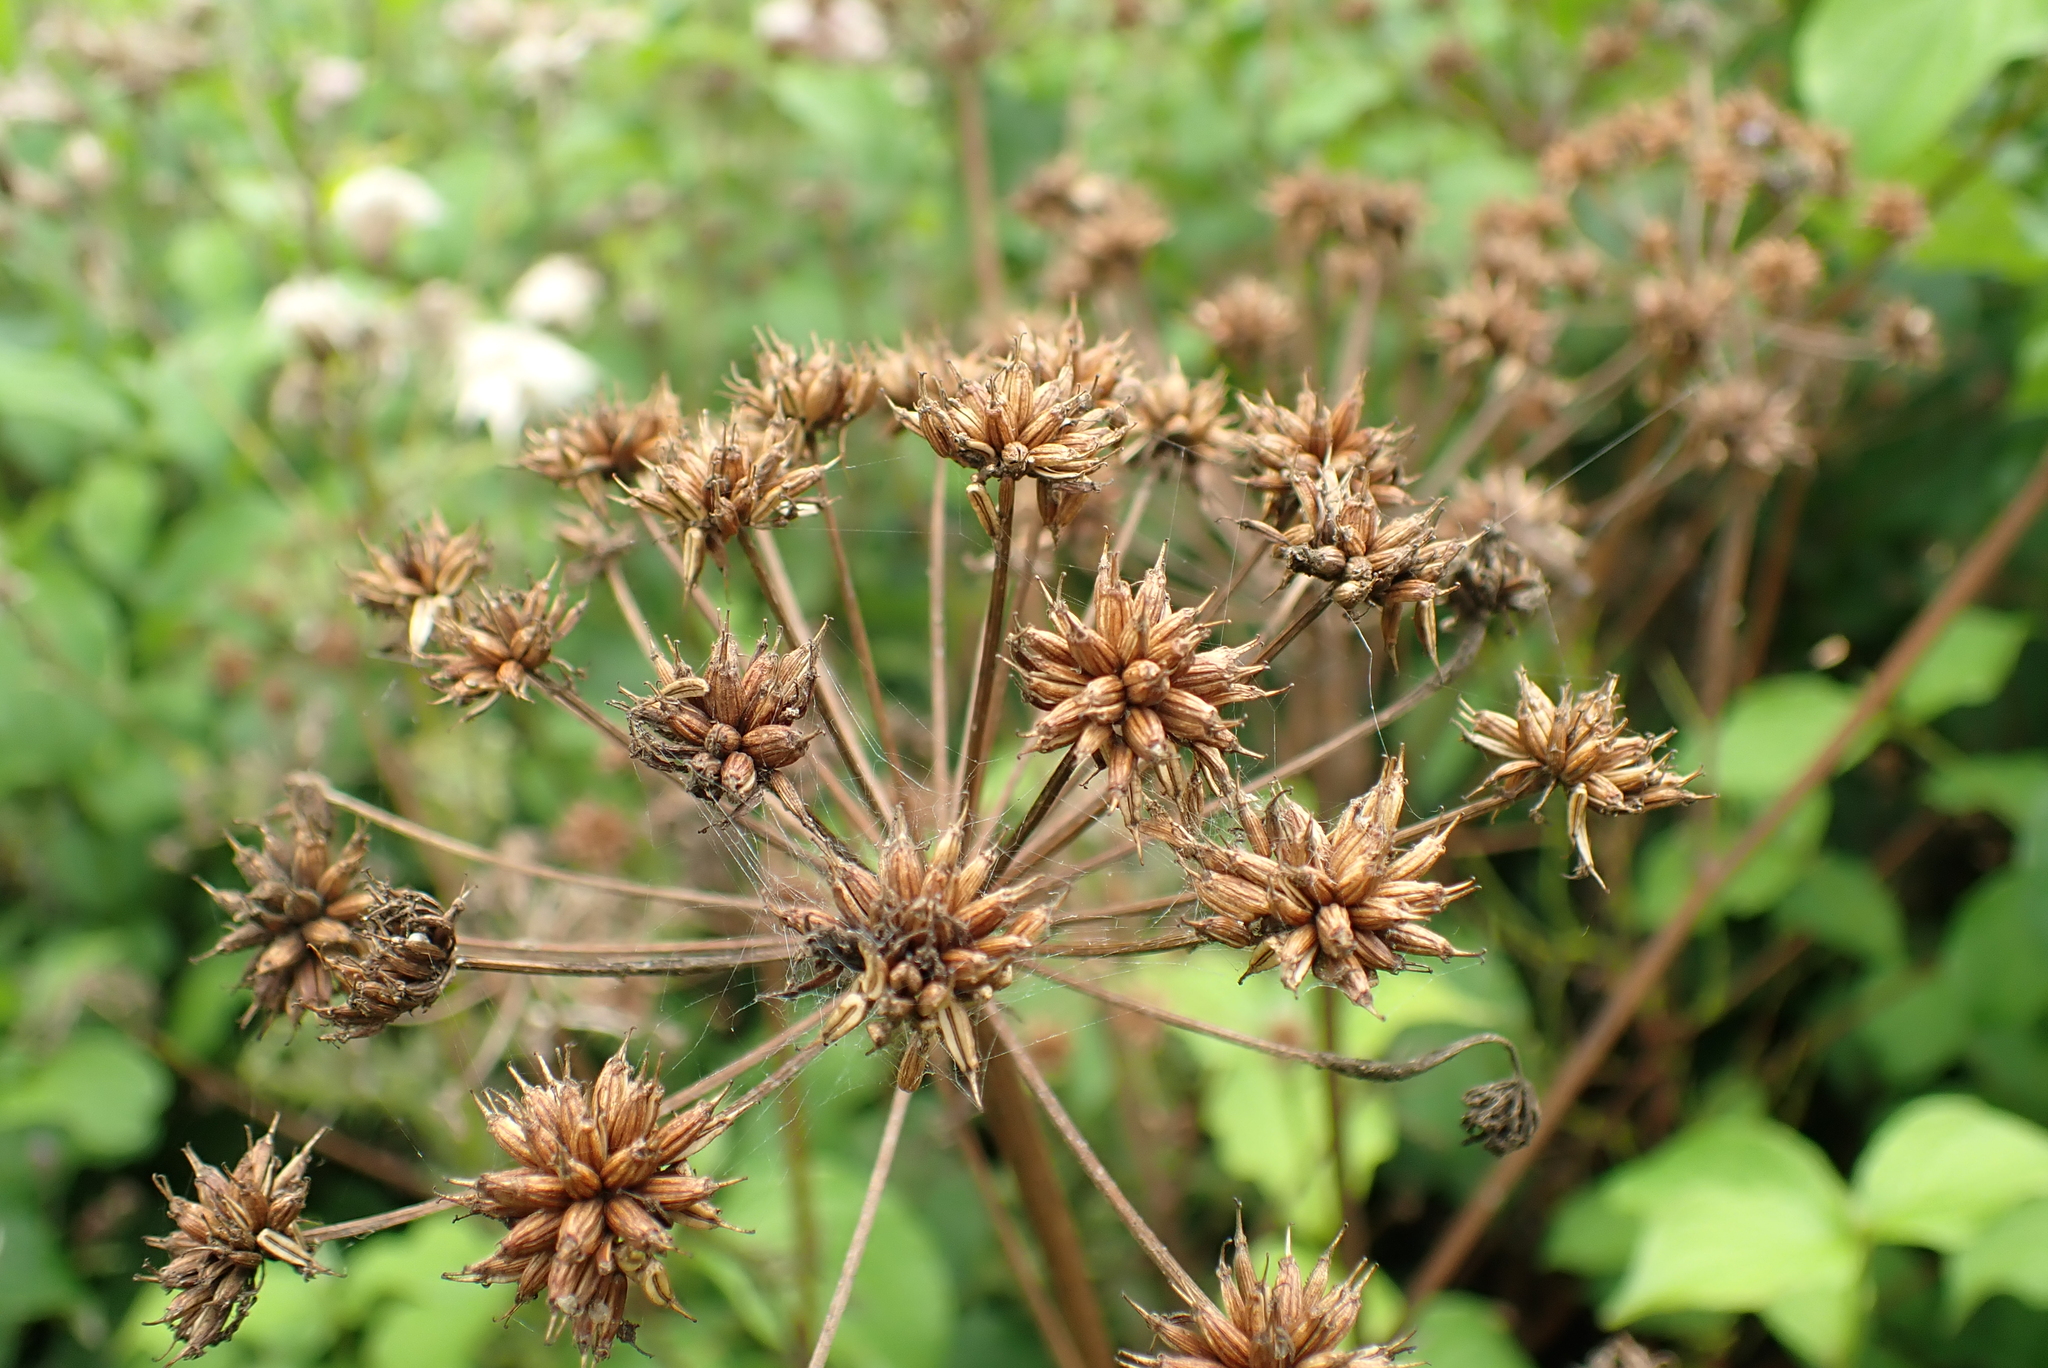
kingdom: Plantae
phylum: Tracheophyta
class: Magnoliopsida
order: Apiales
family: Apiaceae
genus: Oenanthe
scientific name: Oenanthe crocata
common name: Hemlock water-dropwort
